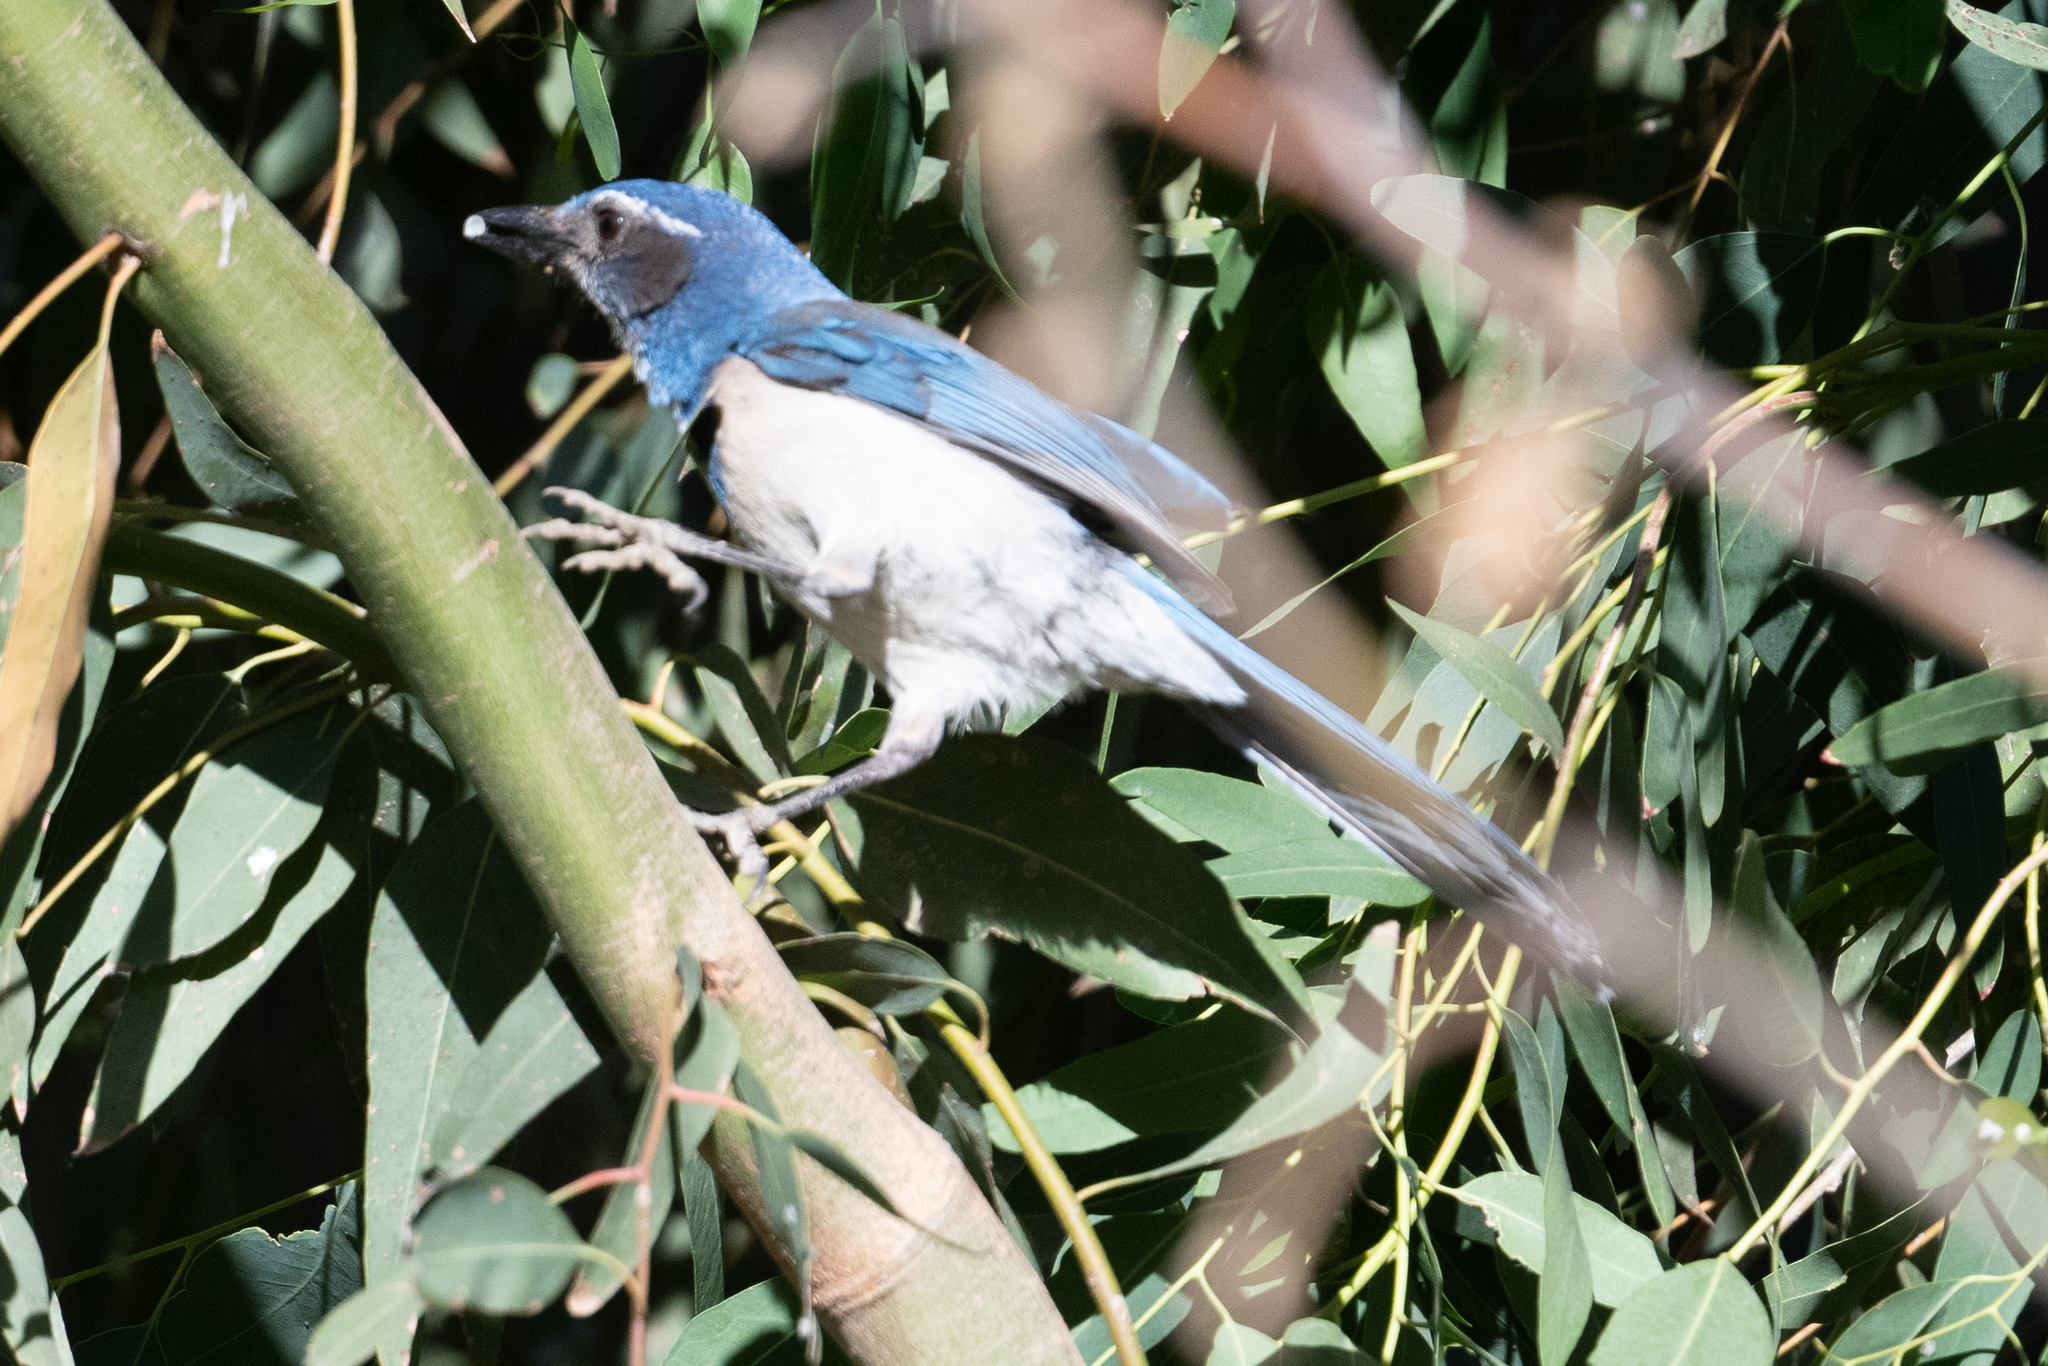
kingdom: Animalia
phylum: Chordata
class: Aves
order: Passeriformes
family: Corvidae
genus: Aphelocoma
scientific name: Aphelocoma californica
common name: California scrub-jay
